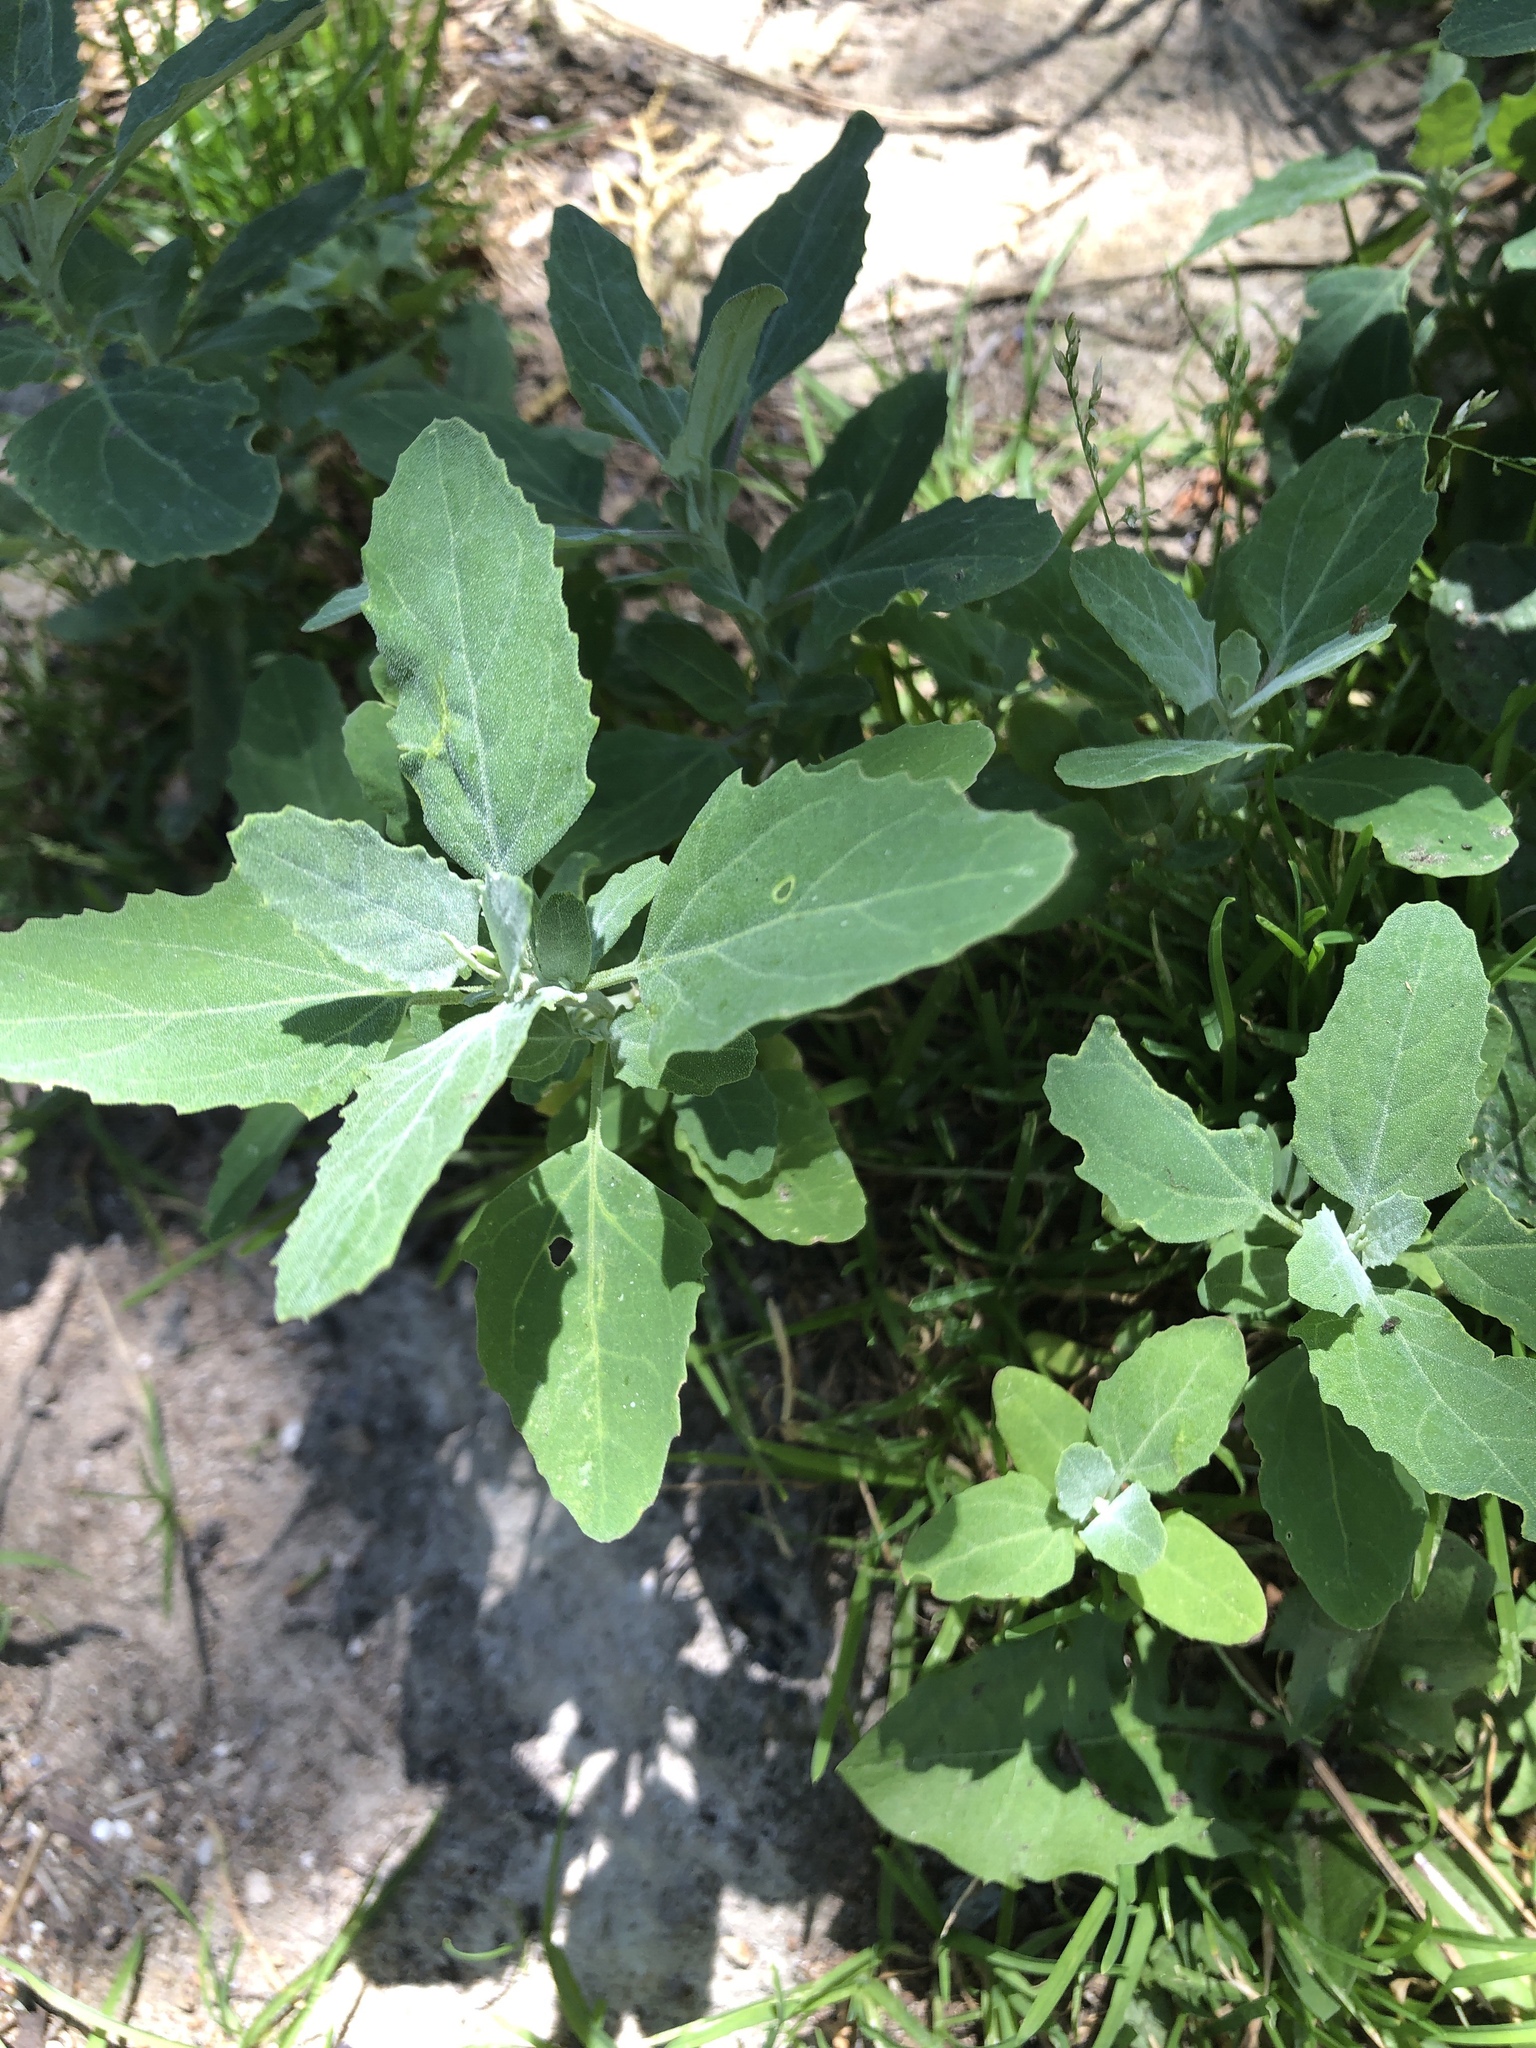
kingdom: Plantae
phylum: Tracheophyta
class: Magnoliopsida
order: Caryophyllales
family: Amaranthaceae
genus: Chenopodium
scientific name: Chenopodium album
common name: Fat-hen
